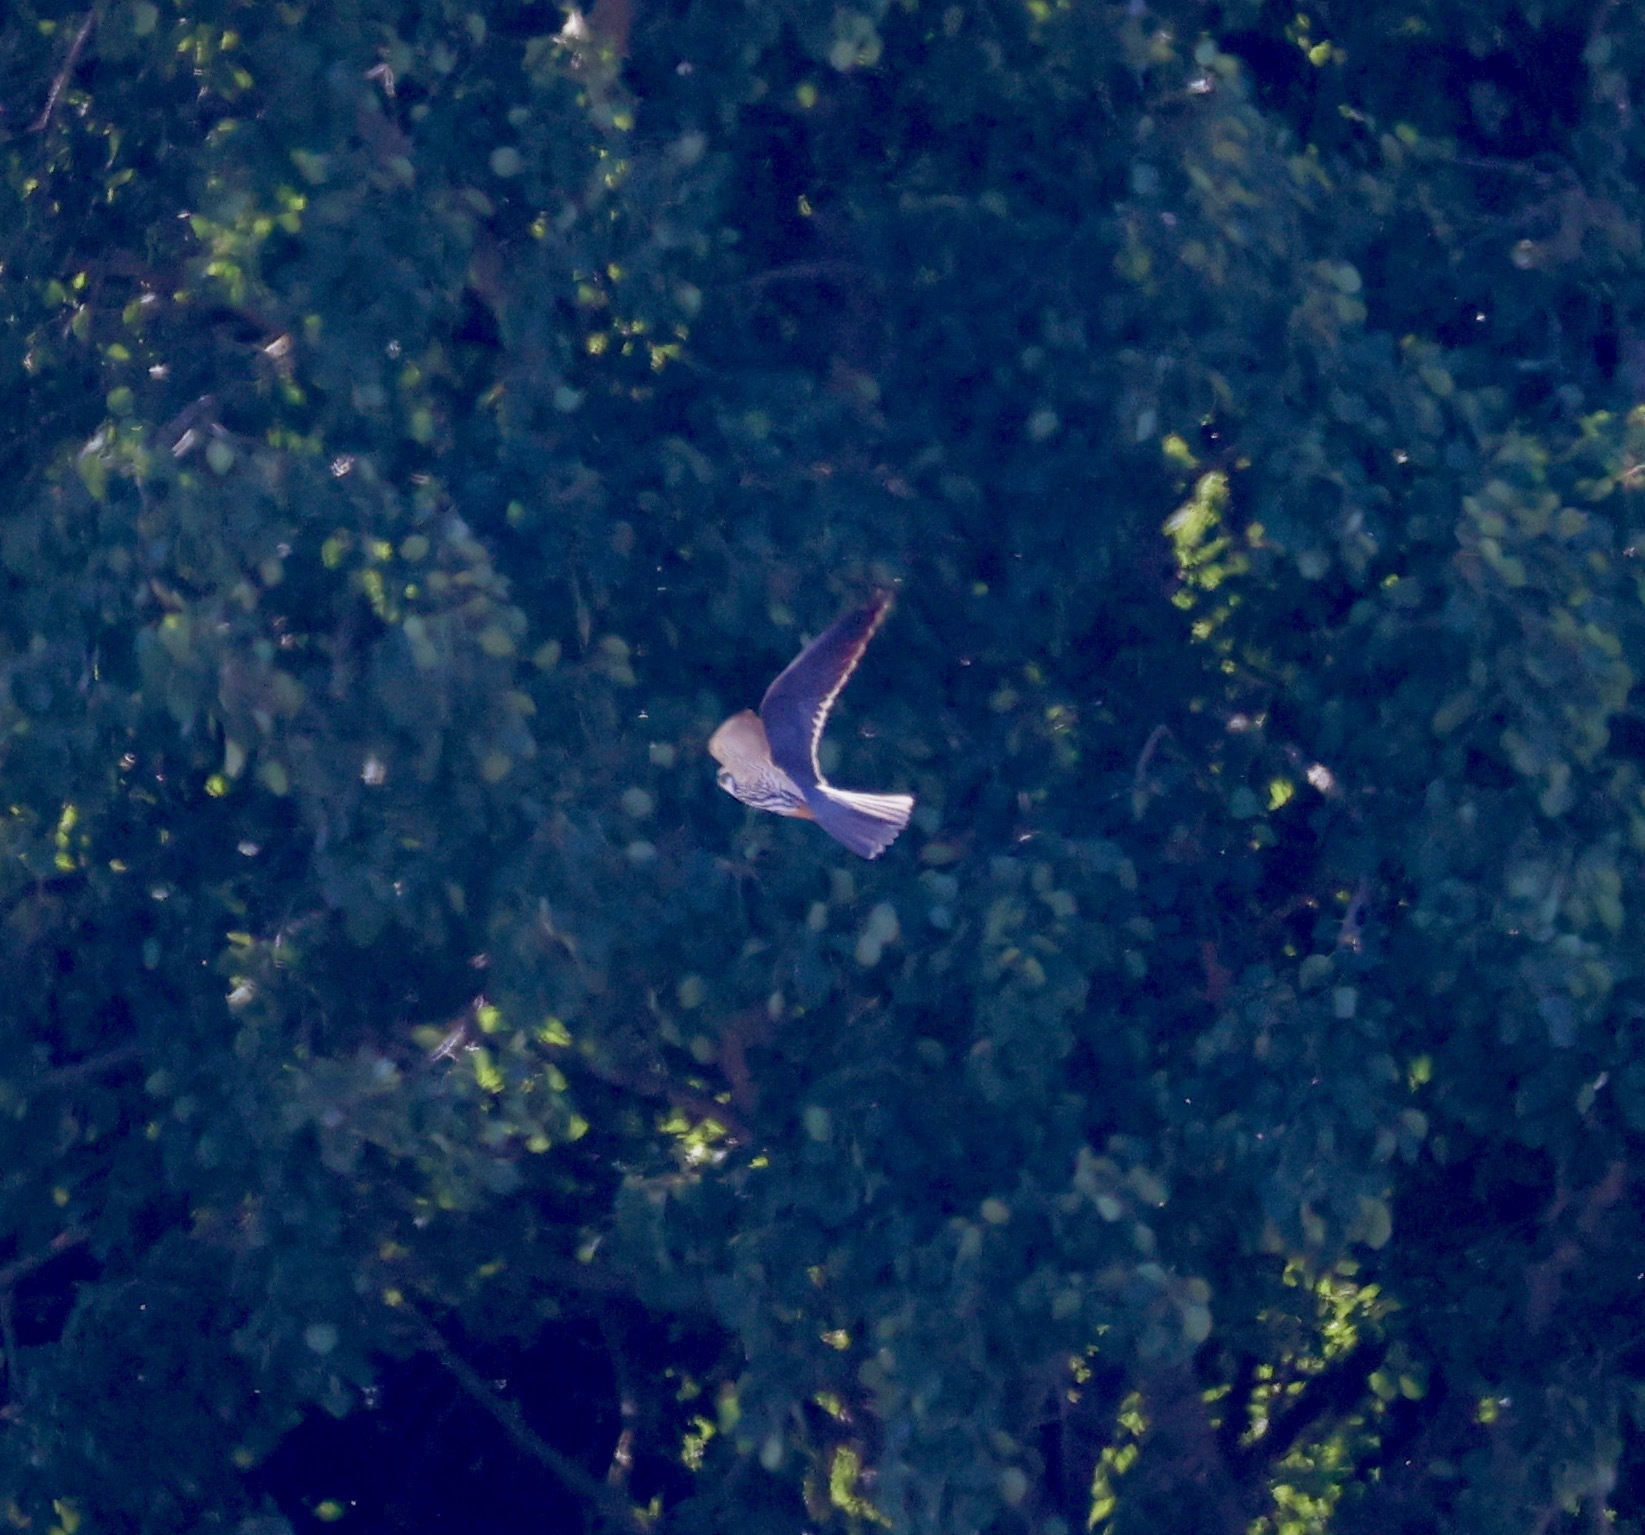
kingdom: Animalia
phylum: Chordata
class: Aves
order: Falconiformes
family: Falconidae
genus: Falco
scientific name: Falco subbuteo
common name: Eurasian hobby
